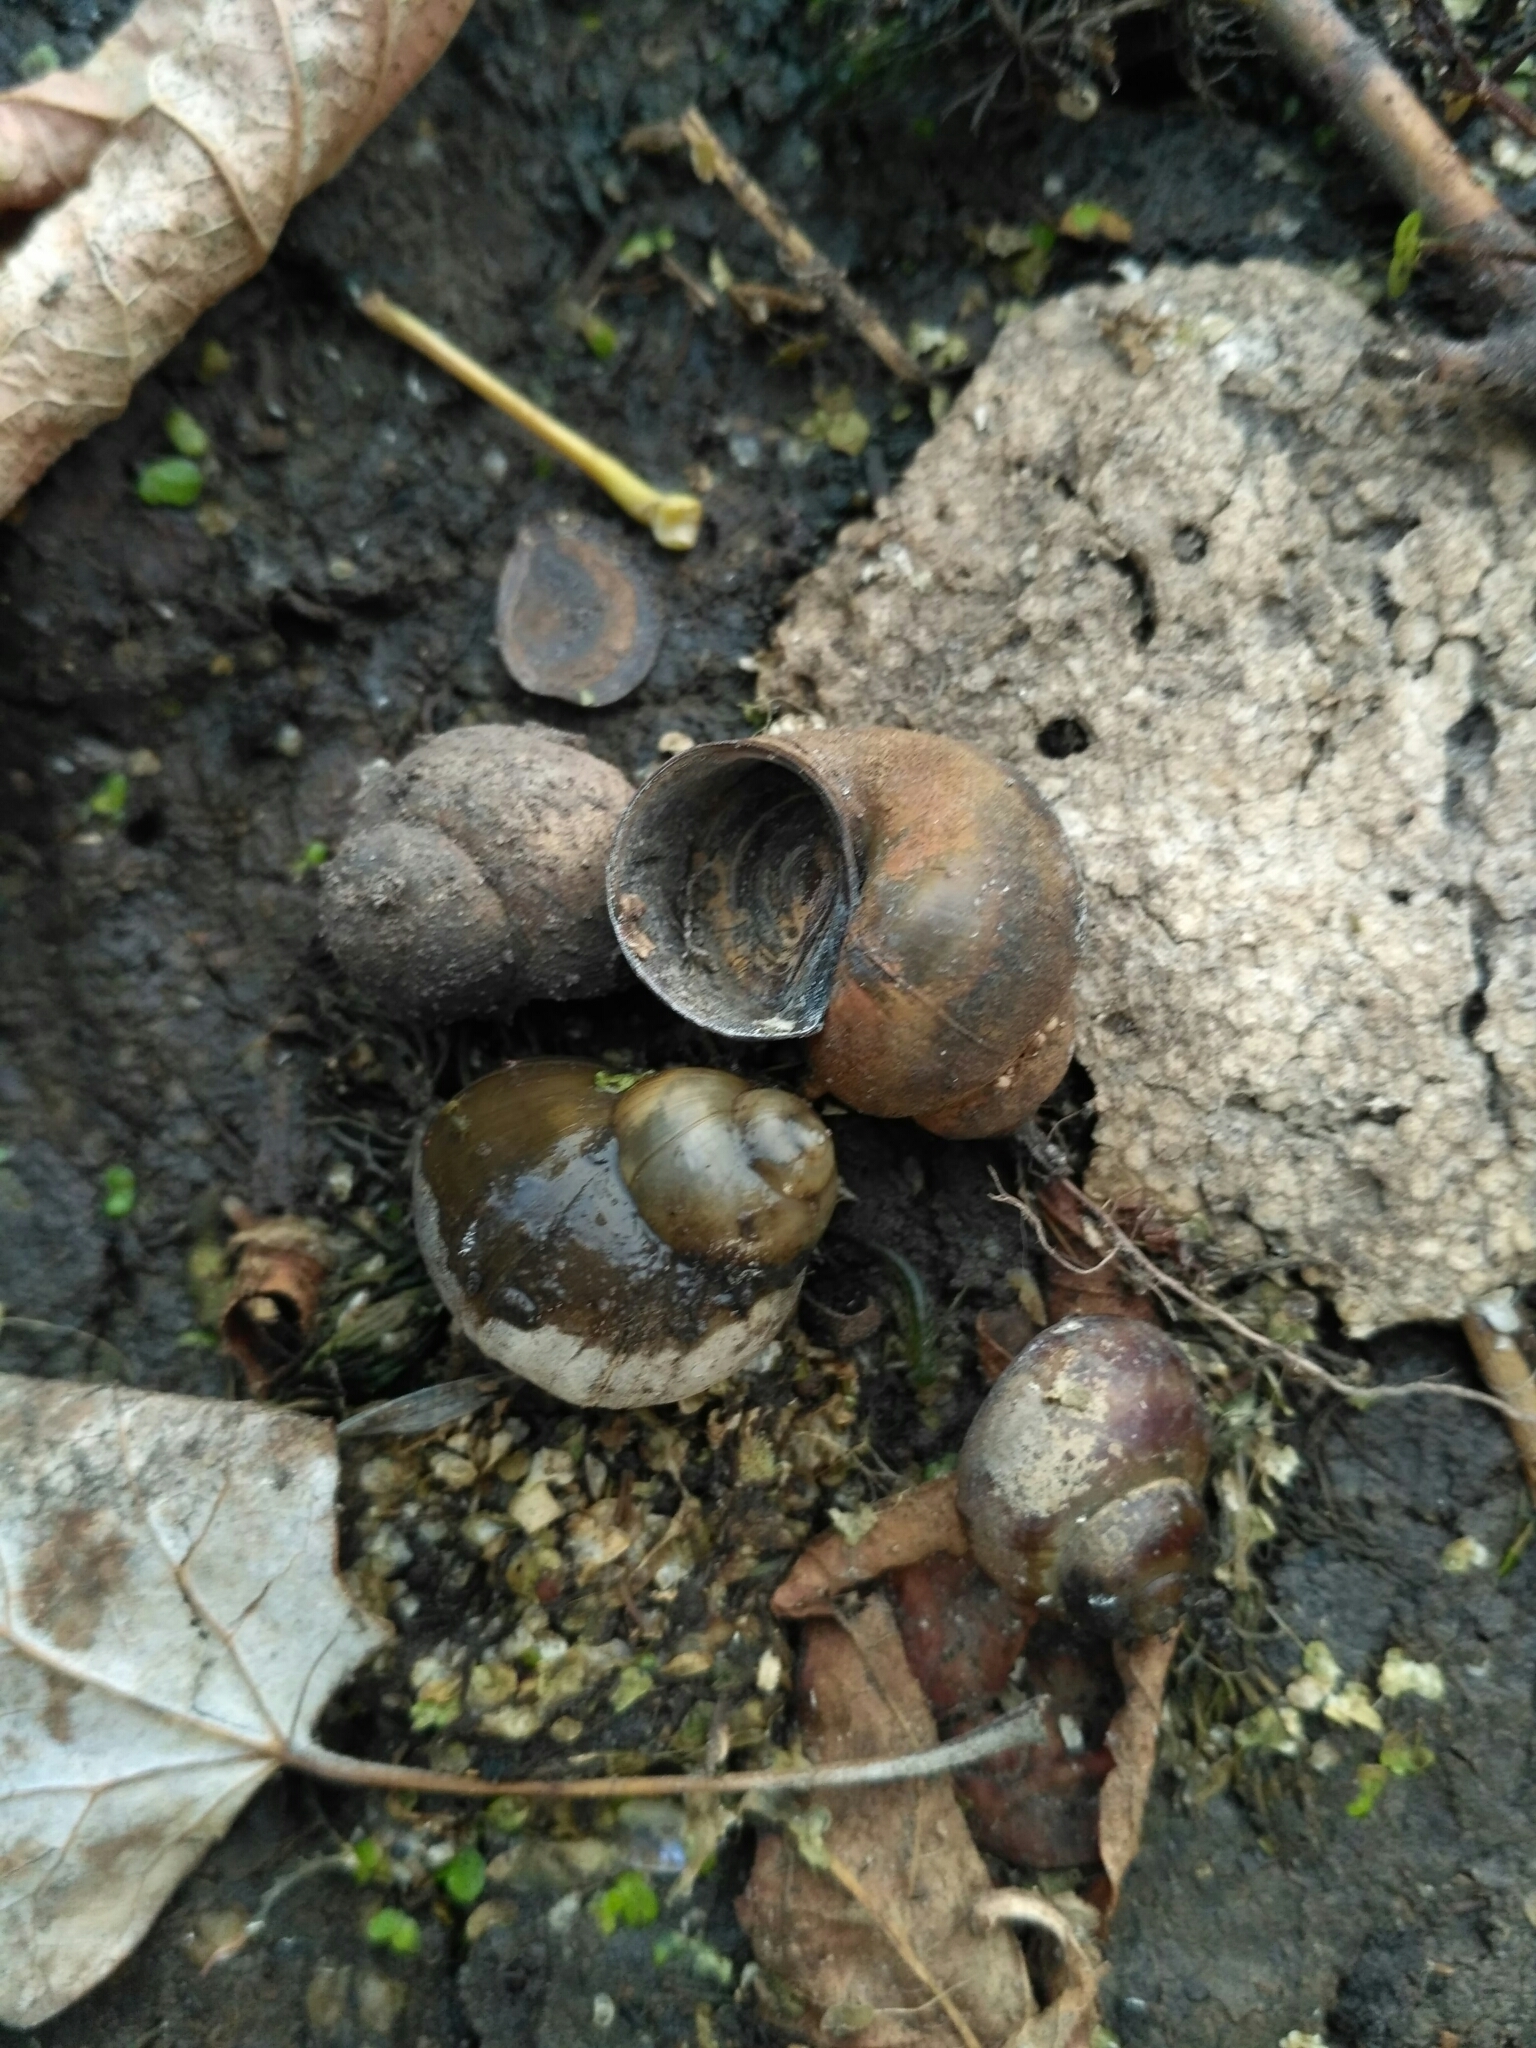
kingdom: Animalia
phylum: Mollusca
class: Gastropoda
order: Architaenioglossa
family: Viviparidae
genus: Viviparus
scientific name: Viviparus viviparus
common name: River snail
